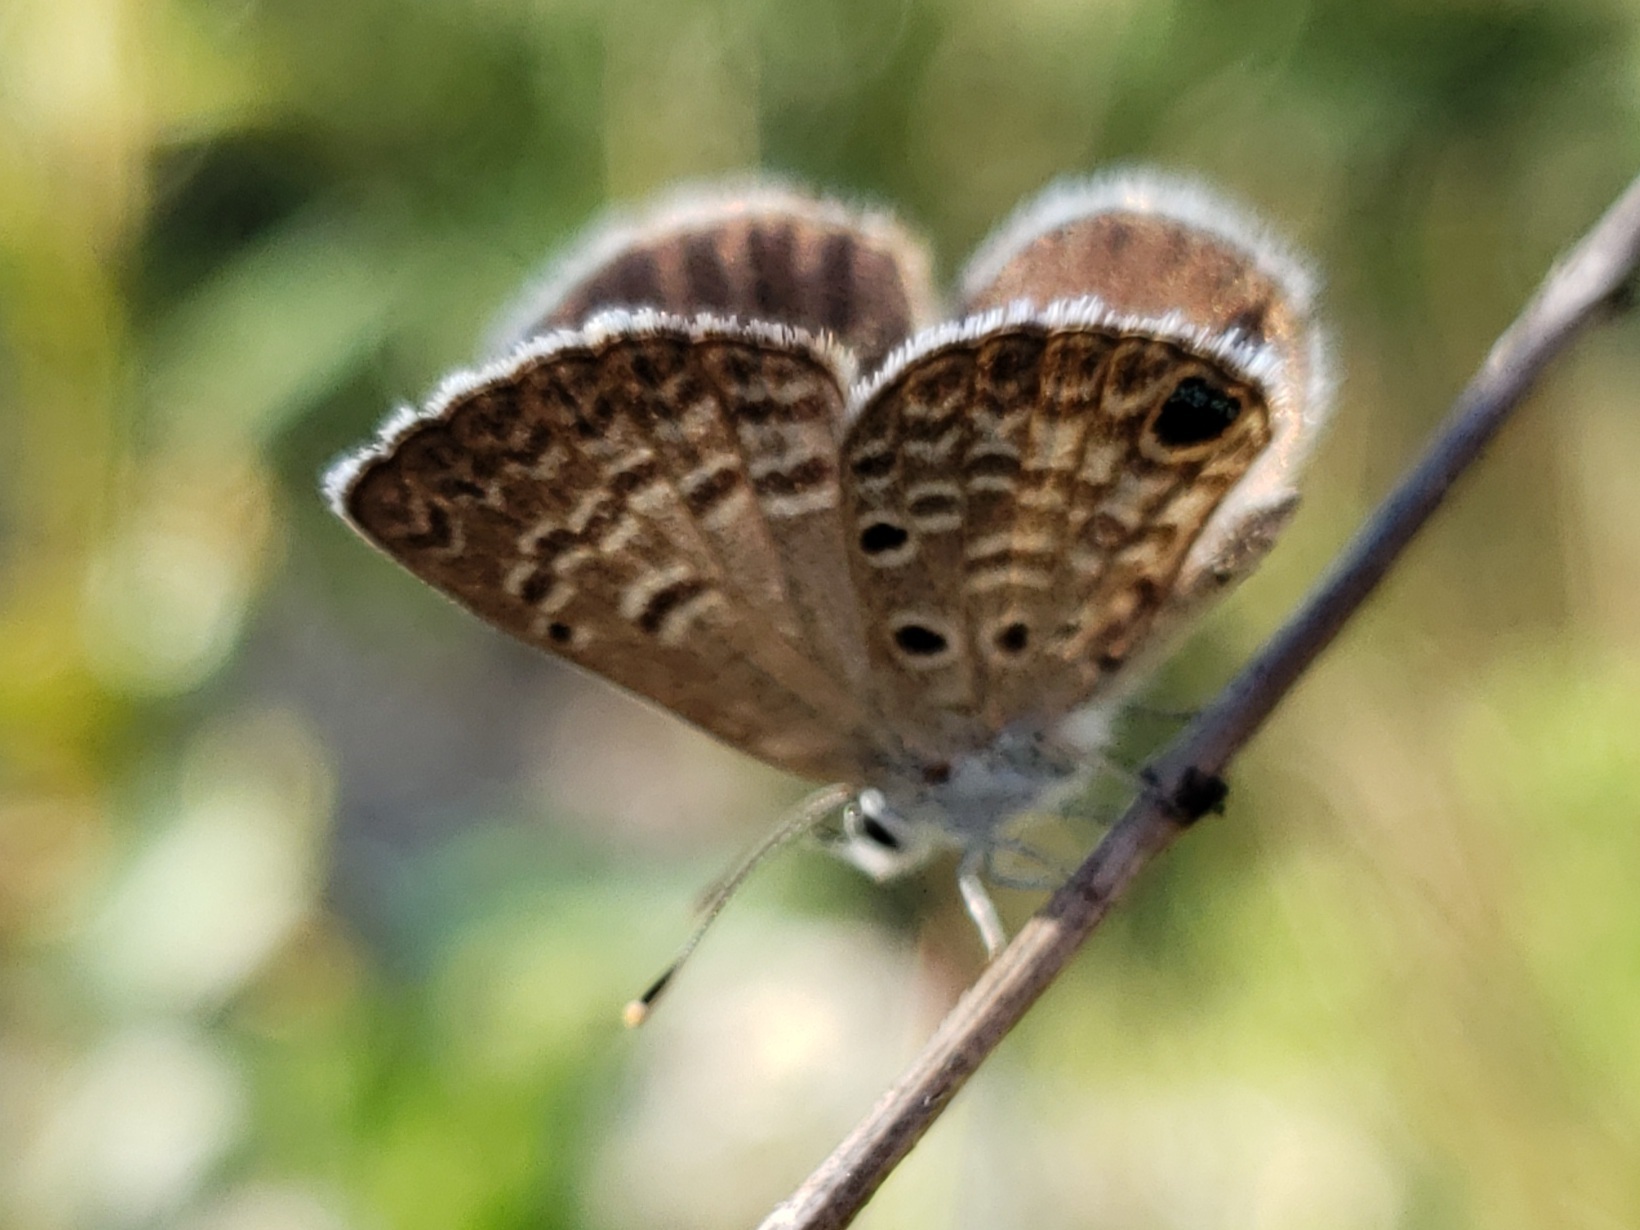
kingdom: Animalia
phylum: Arthropoda
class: Insecta
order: Lepidoptera
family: Lycaenidae
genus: Hemiargus
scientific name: Hemiargus ceraunus
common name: Ceraunus blue
